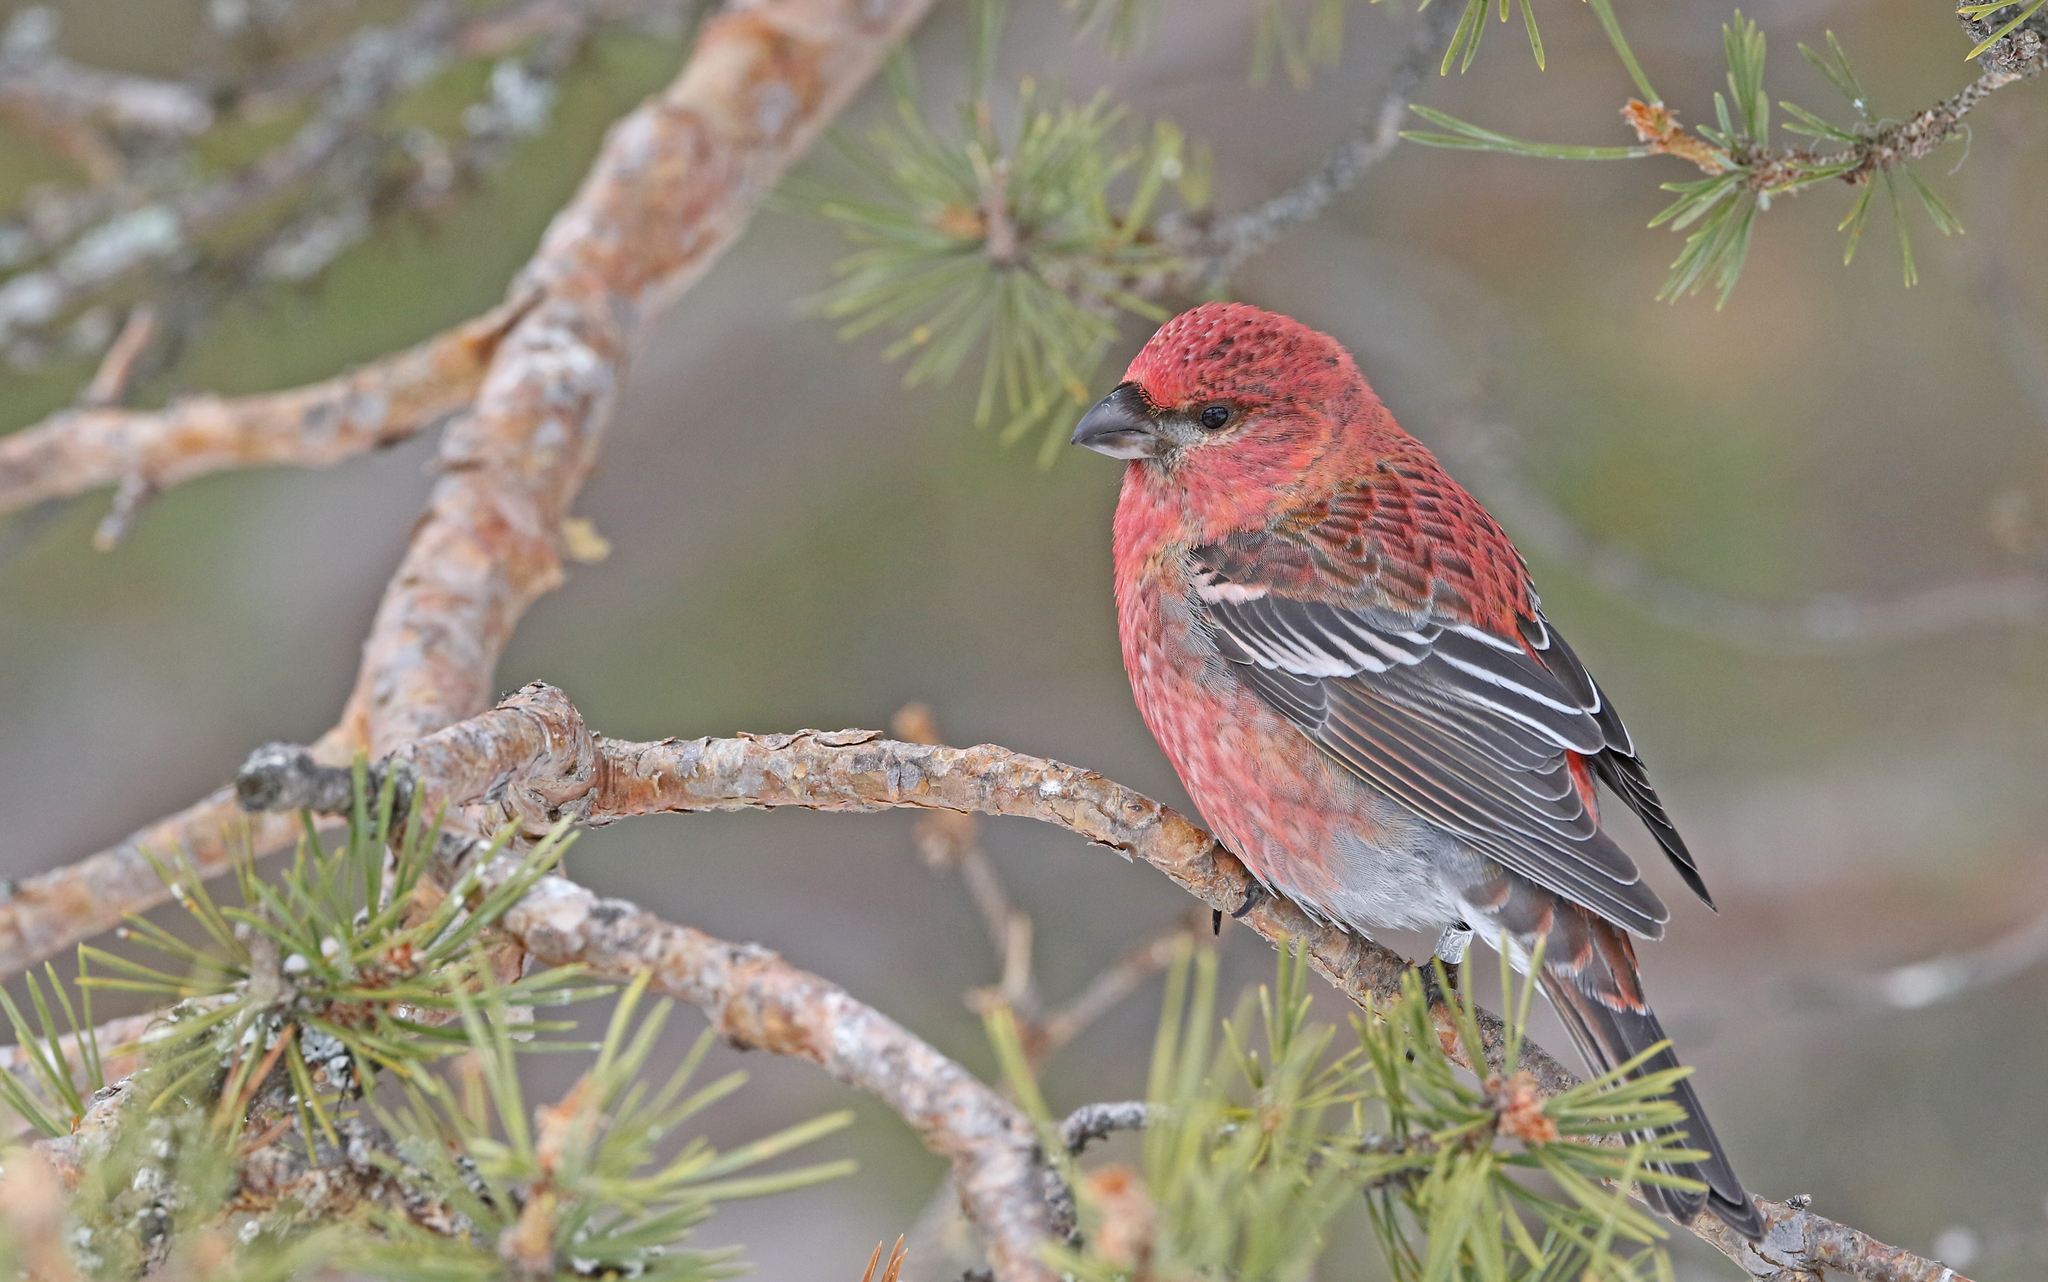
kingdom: Animalia
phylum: Chordata
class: Aves
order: Passeriformes
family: Fringillidae
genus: Pinicola
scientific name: Pinicola enucleator
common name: Pine grosbeak
